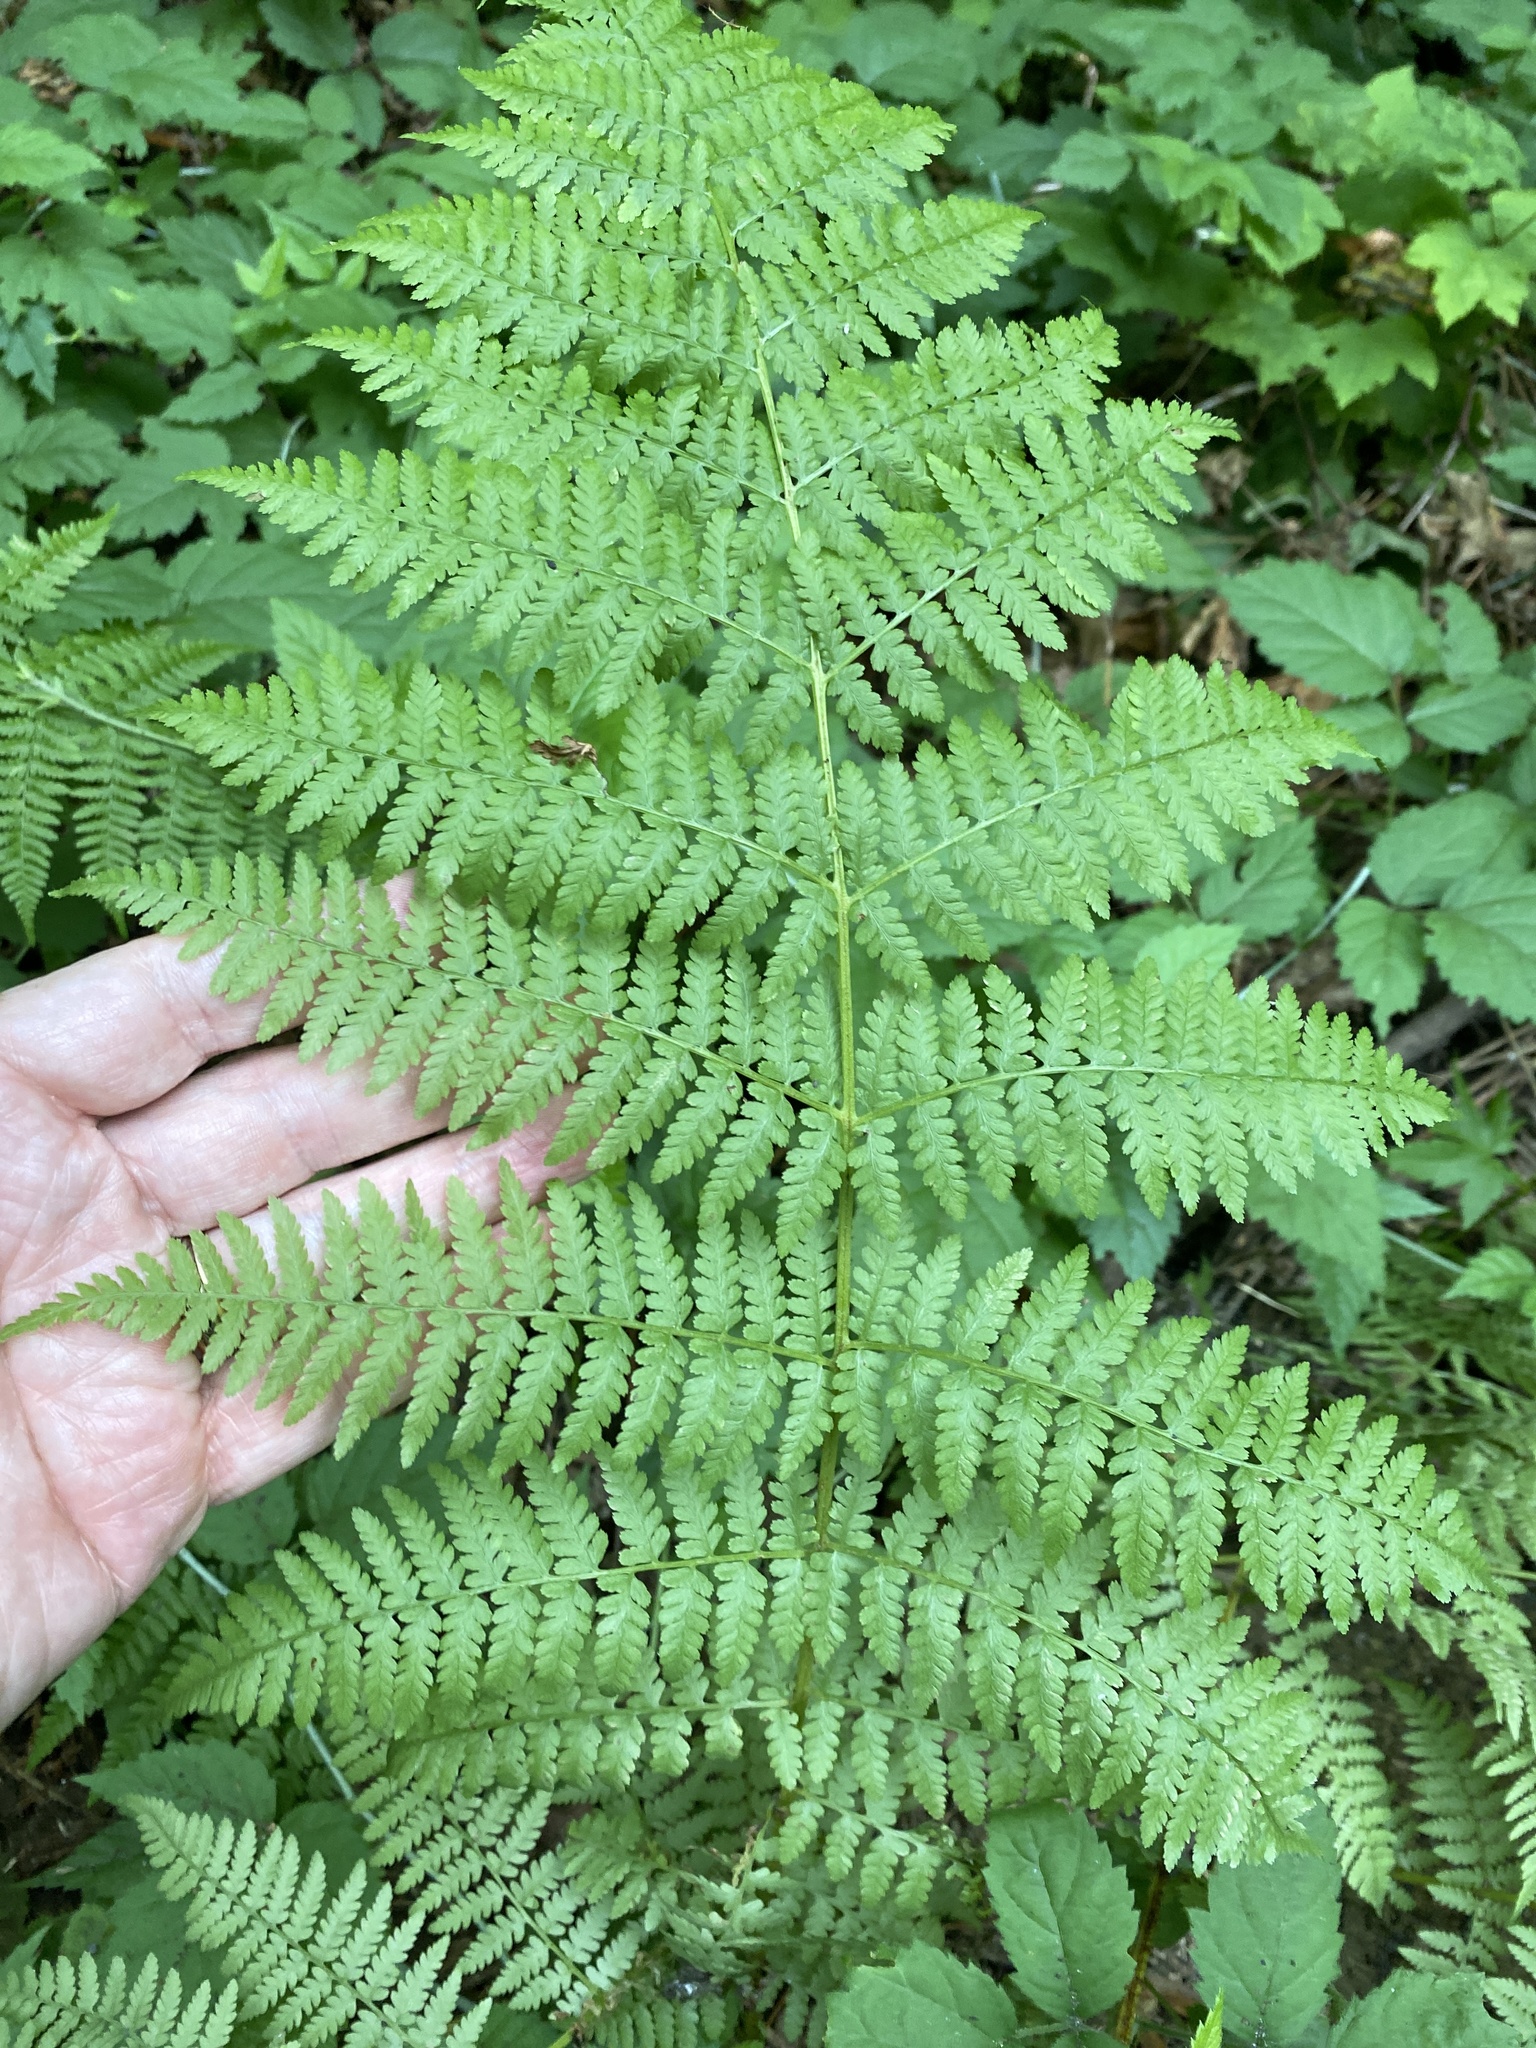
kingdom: Plantae
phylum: Tracheophyta
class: Polypodiopsida
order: Polypodiales
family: Athyriaceae
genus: Athyrium
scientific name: Athyrium cyclosorum
